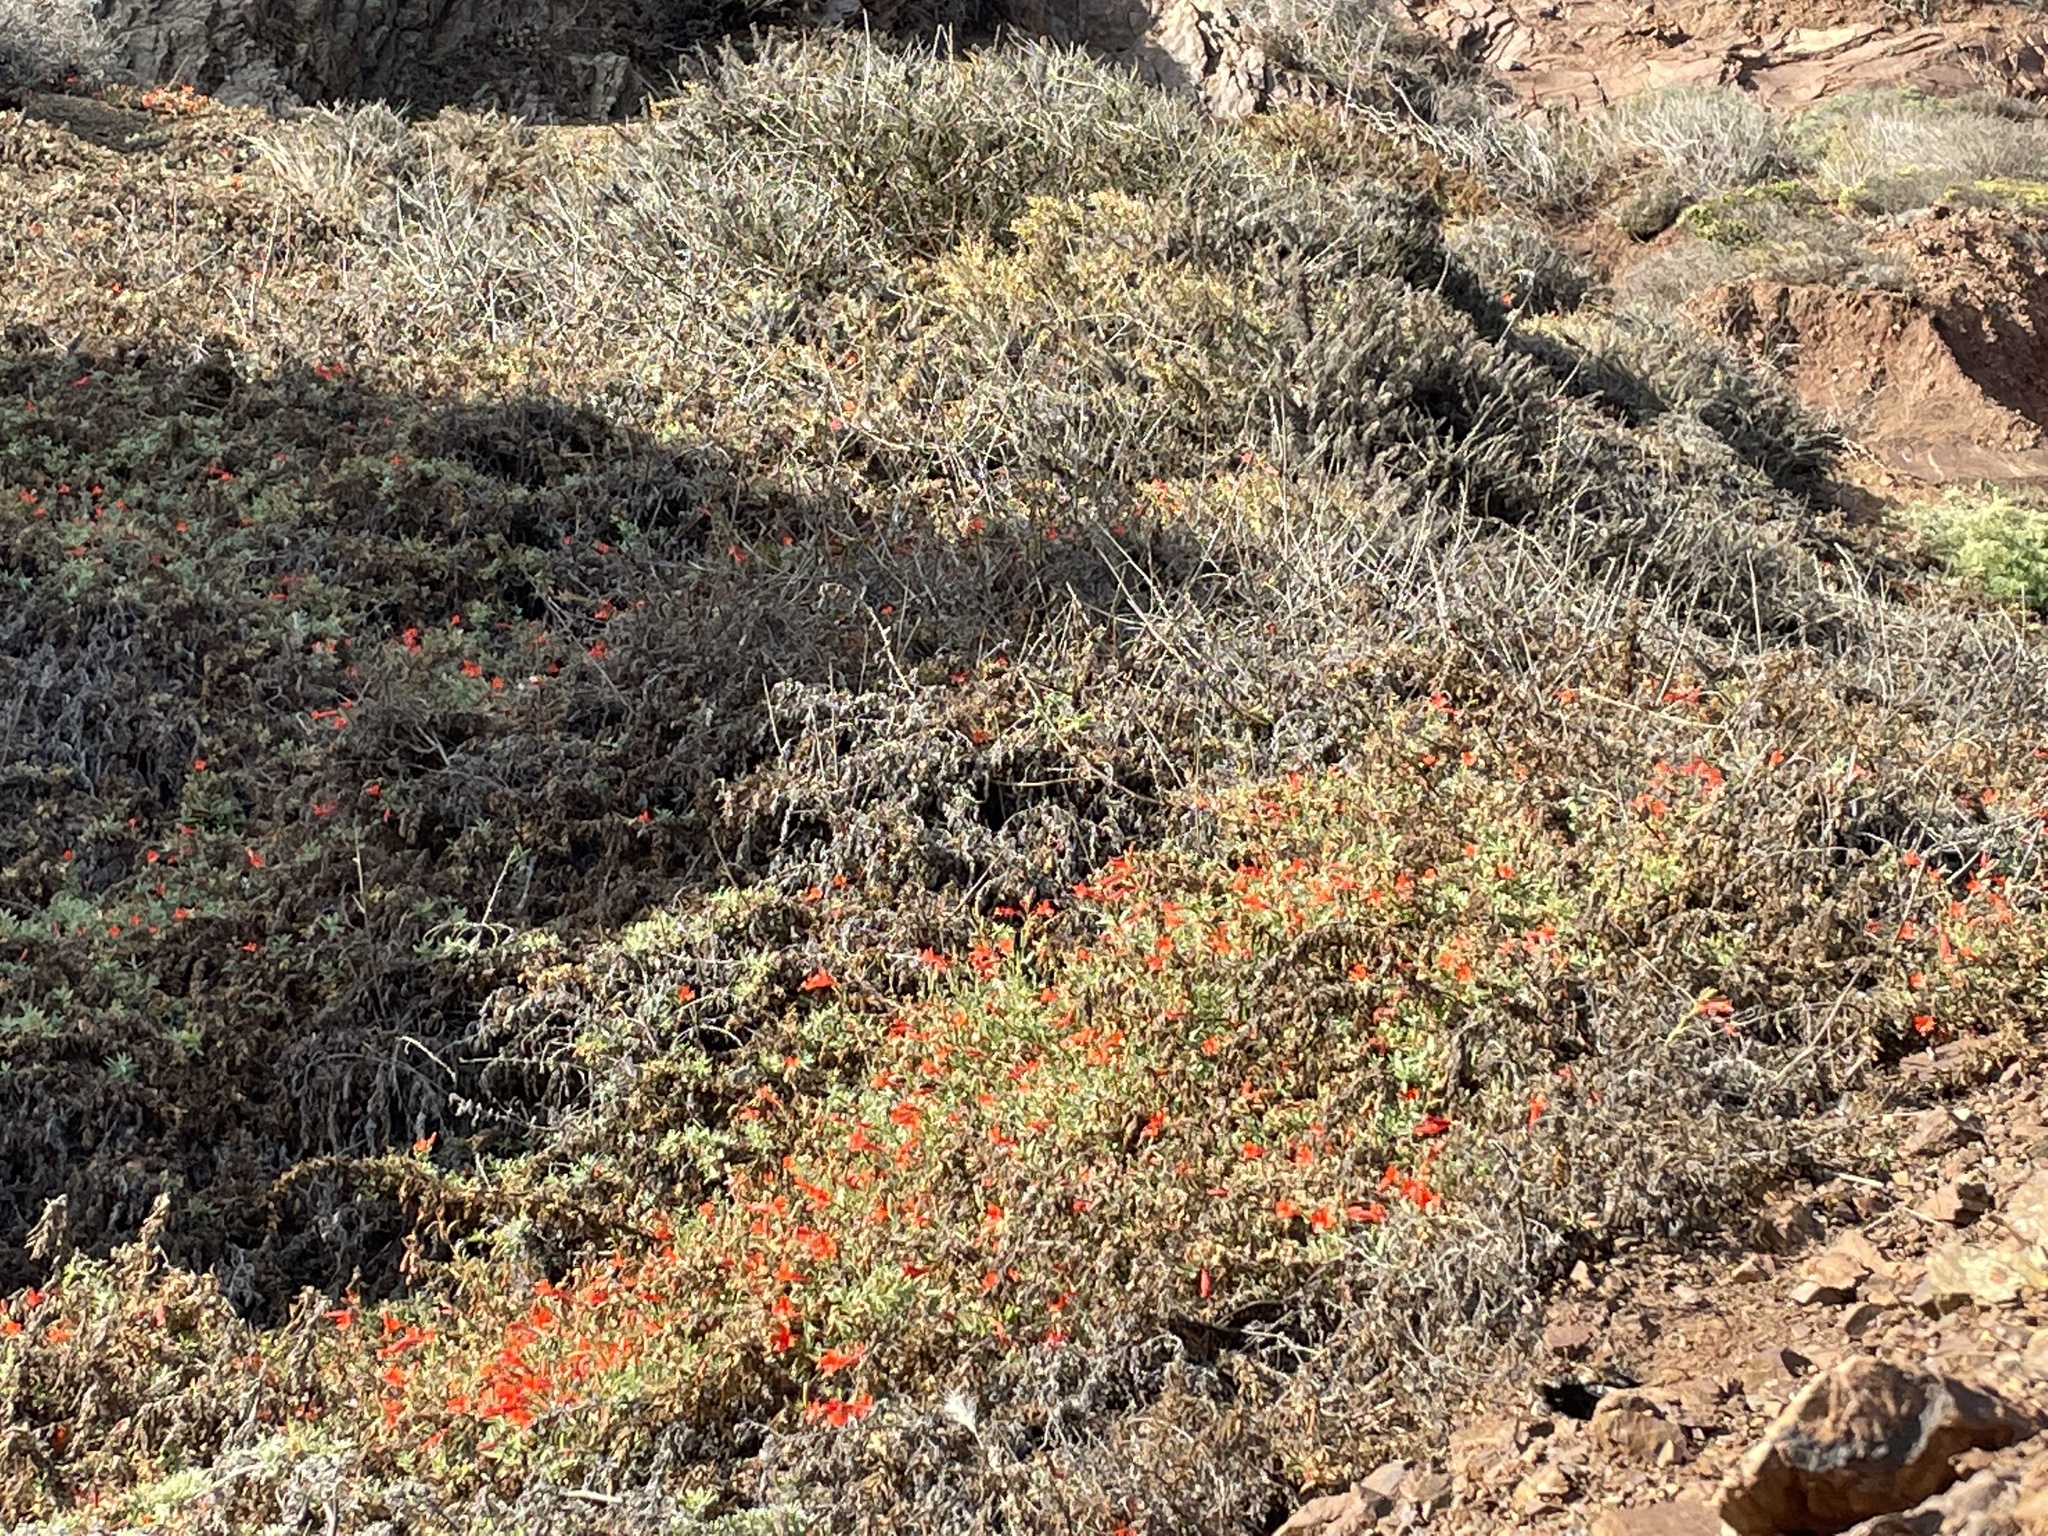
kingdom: Plantae
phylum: Tracheophyta
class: Magnoliopsida
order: Myrtales
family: Onagraceae
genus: Epilobium
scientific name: Epilobium canum
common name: California-fuchsia
